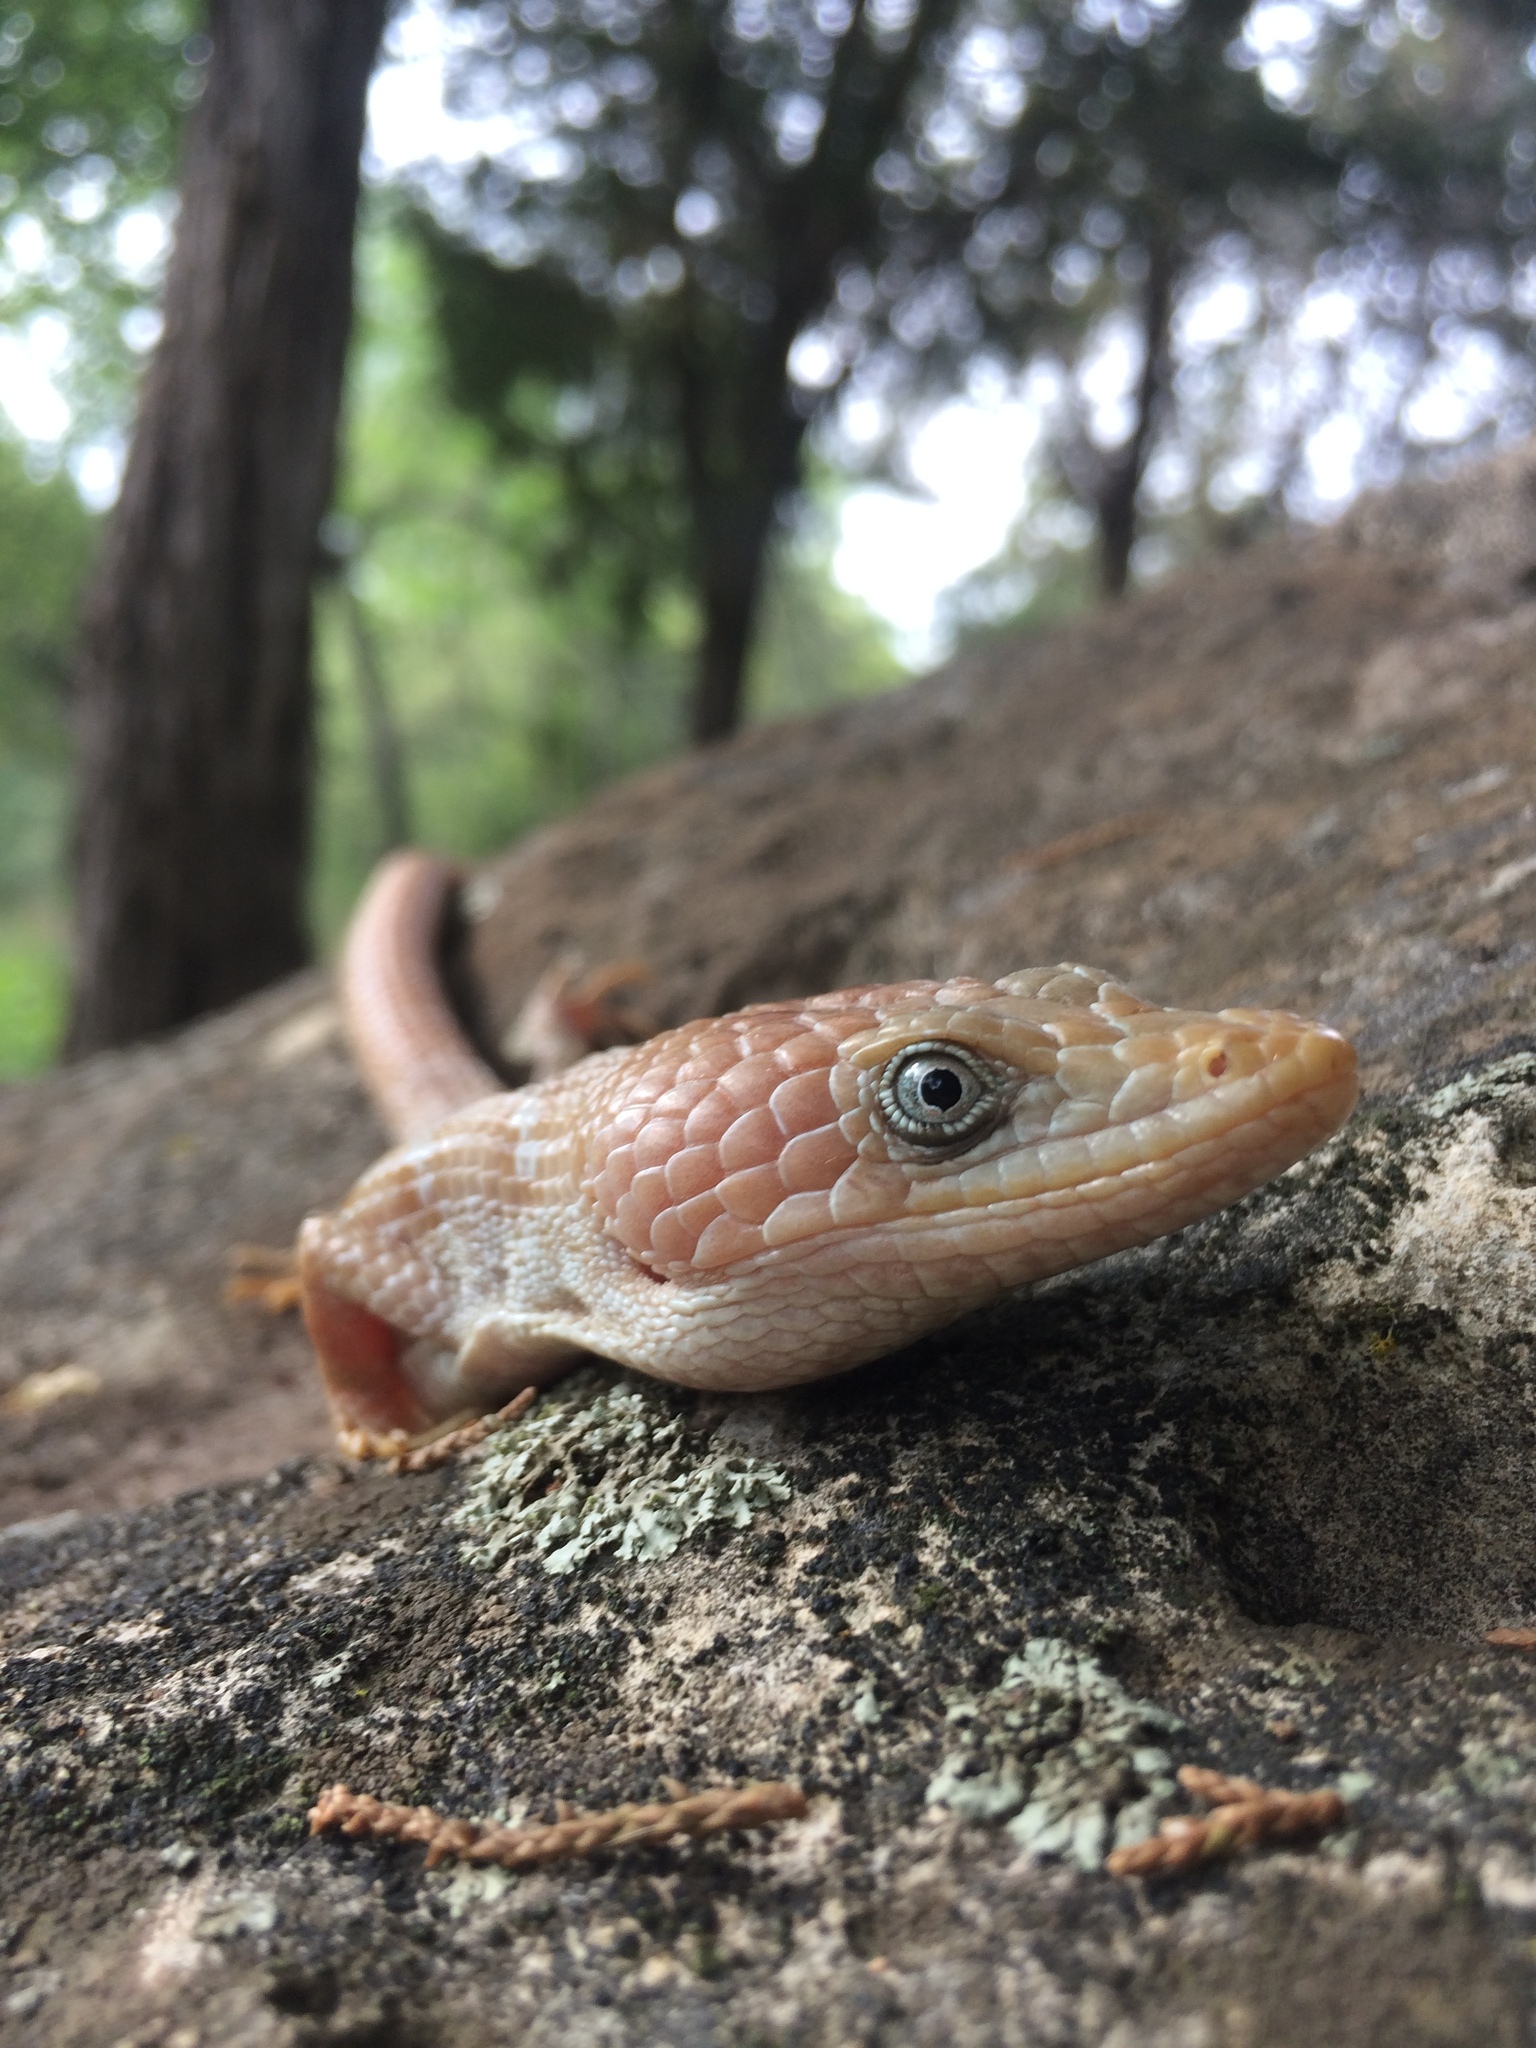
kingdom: Animalia
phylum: Chordata
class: Squamata
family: Anguidae
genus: Gerrhonotus
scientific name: Gerrhonotus infernalis
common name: Texas alligator lizard
